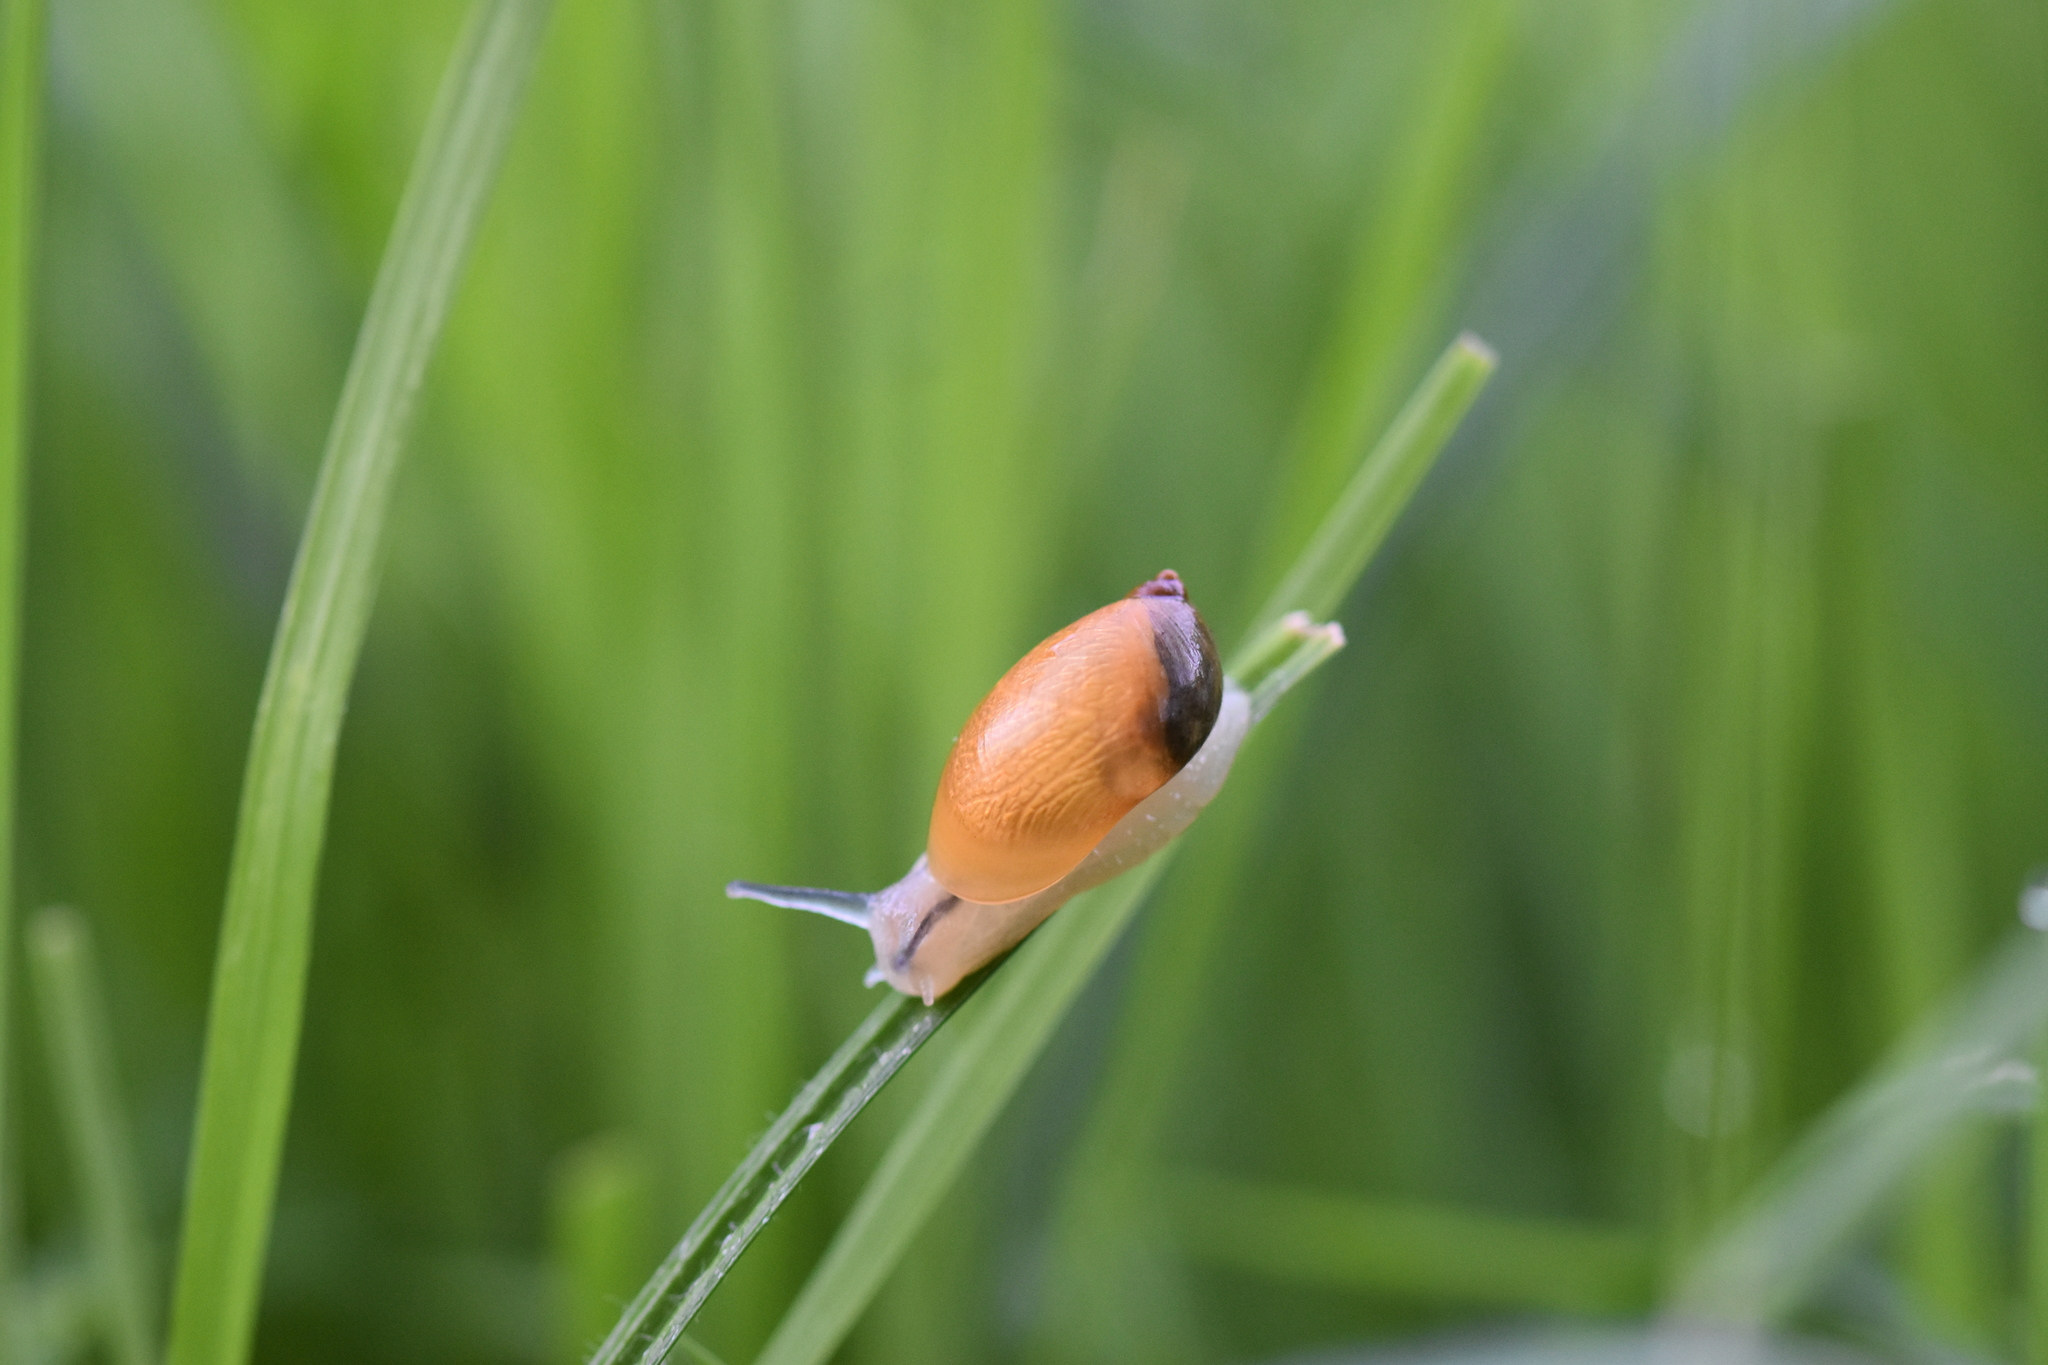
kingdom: Animalia
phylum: Mollusca
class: Gastropoda
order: Stylommatophora
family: Succineidae
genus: Succinea
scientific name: Succinea putris
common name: European ambersnail
